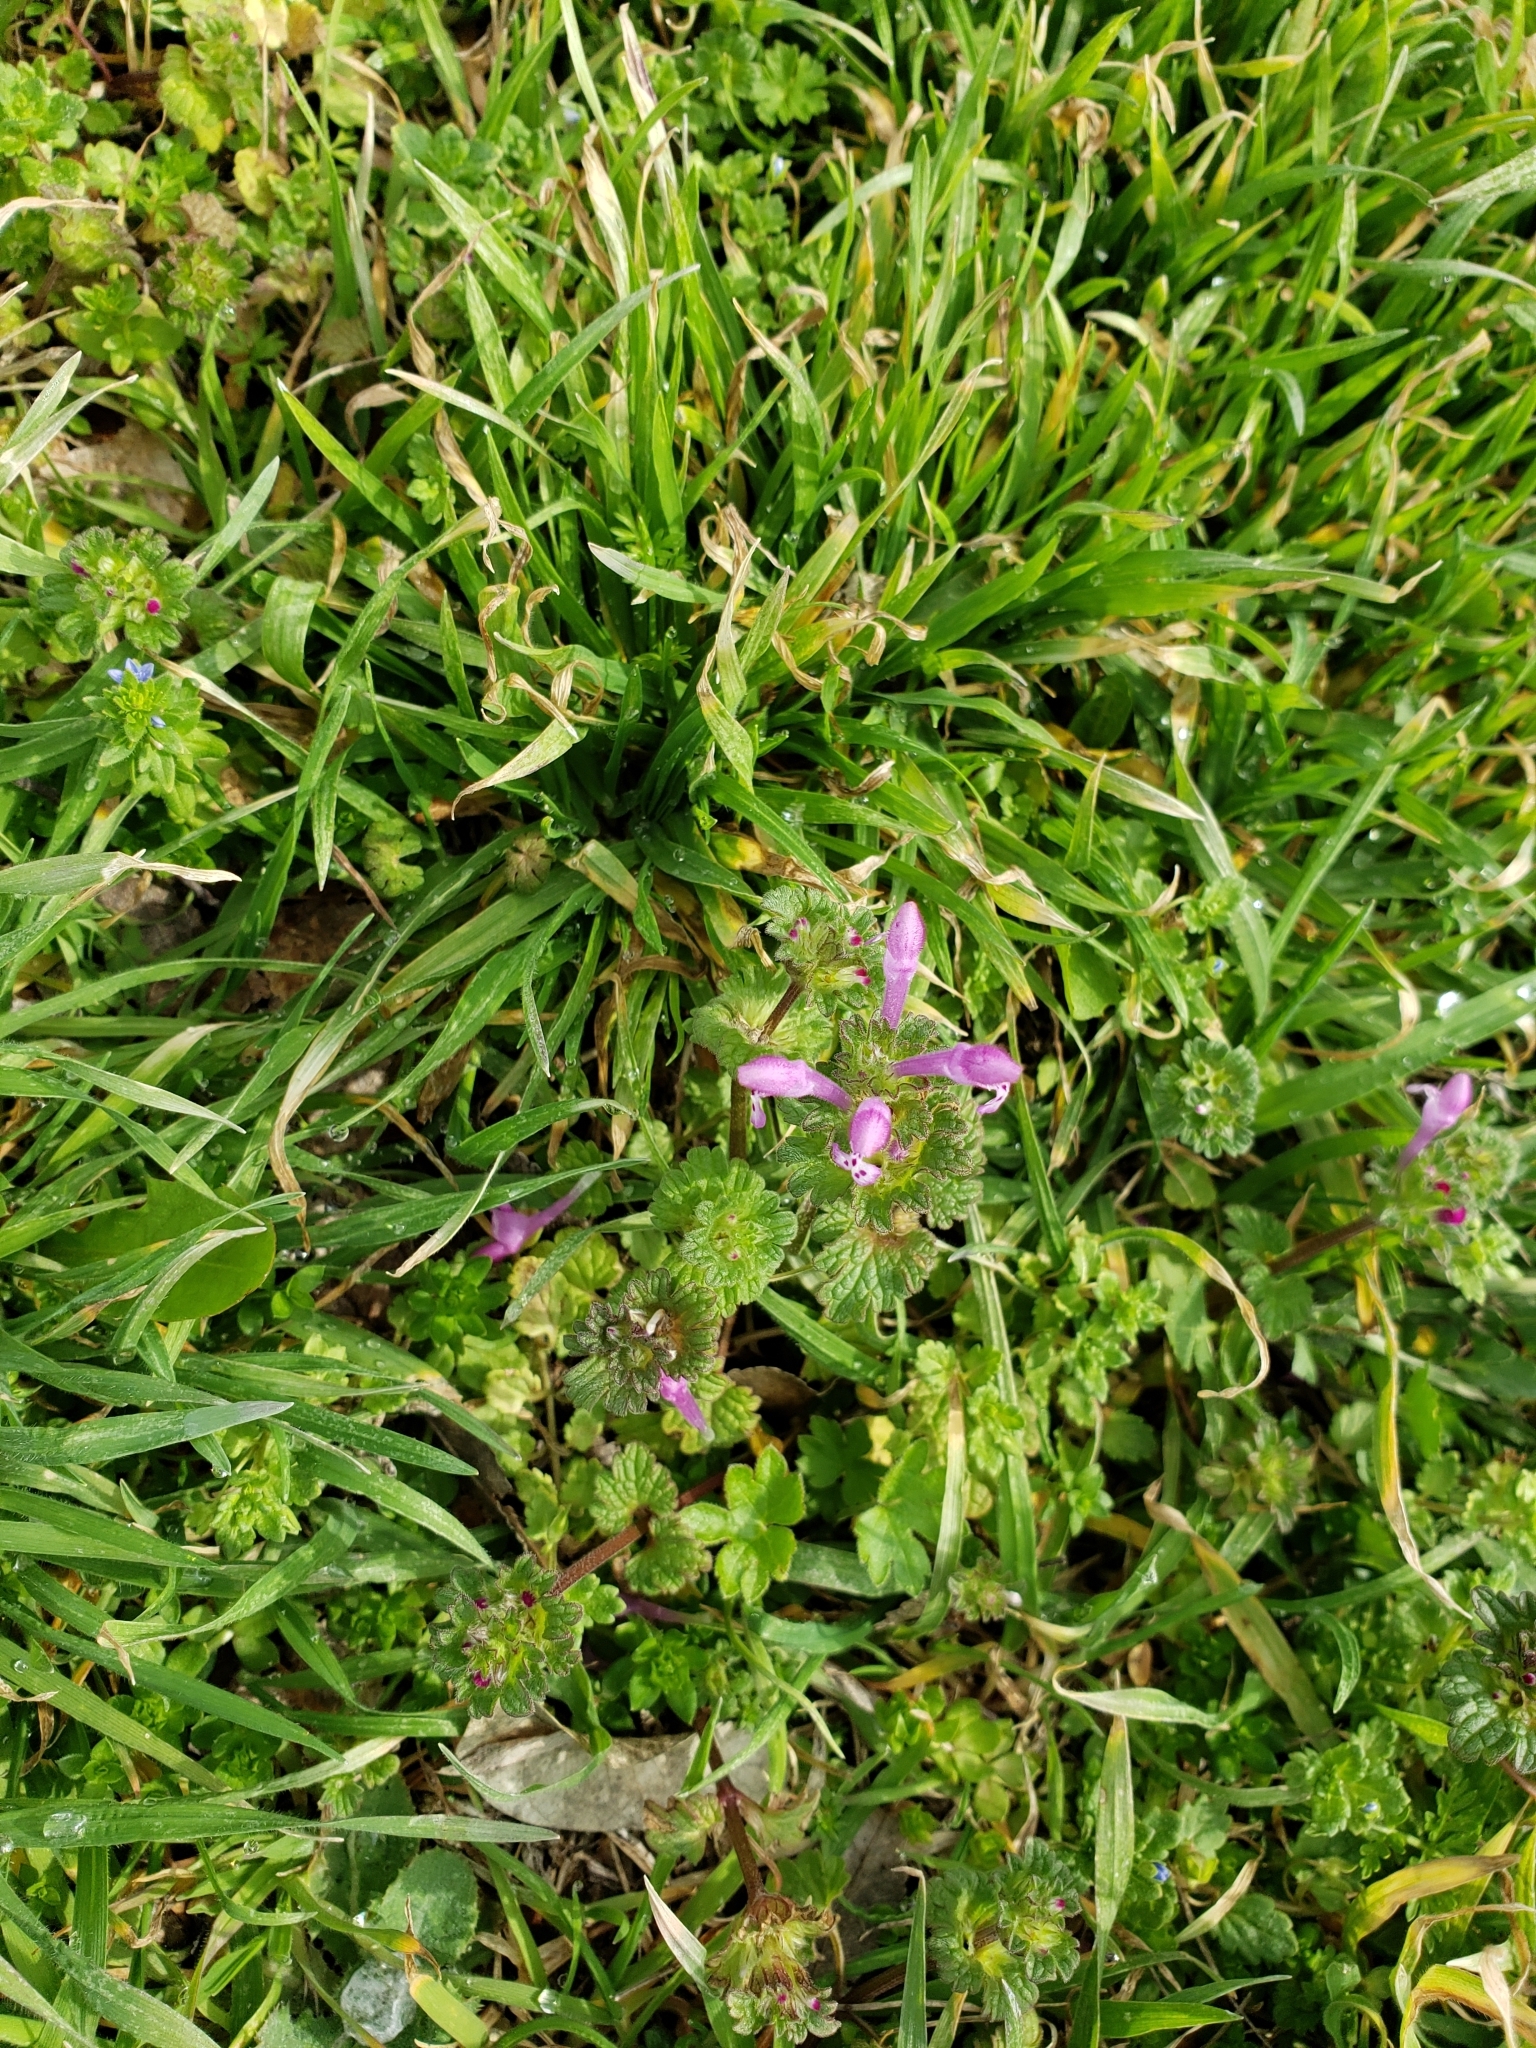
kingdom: Plantae
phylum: Tracheophyta
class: Magnoliopsida
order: Lamiales
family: Lamiaceae
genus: Lamium
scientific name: Lamium amplexicaule
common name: Henbit dead-nettle
